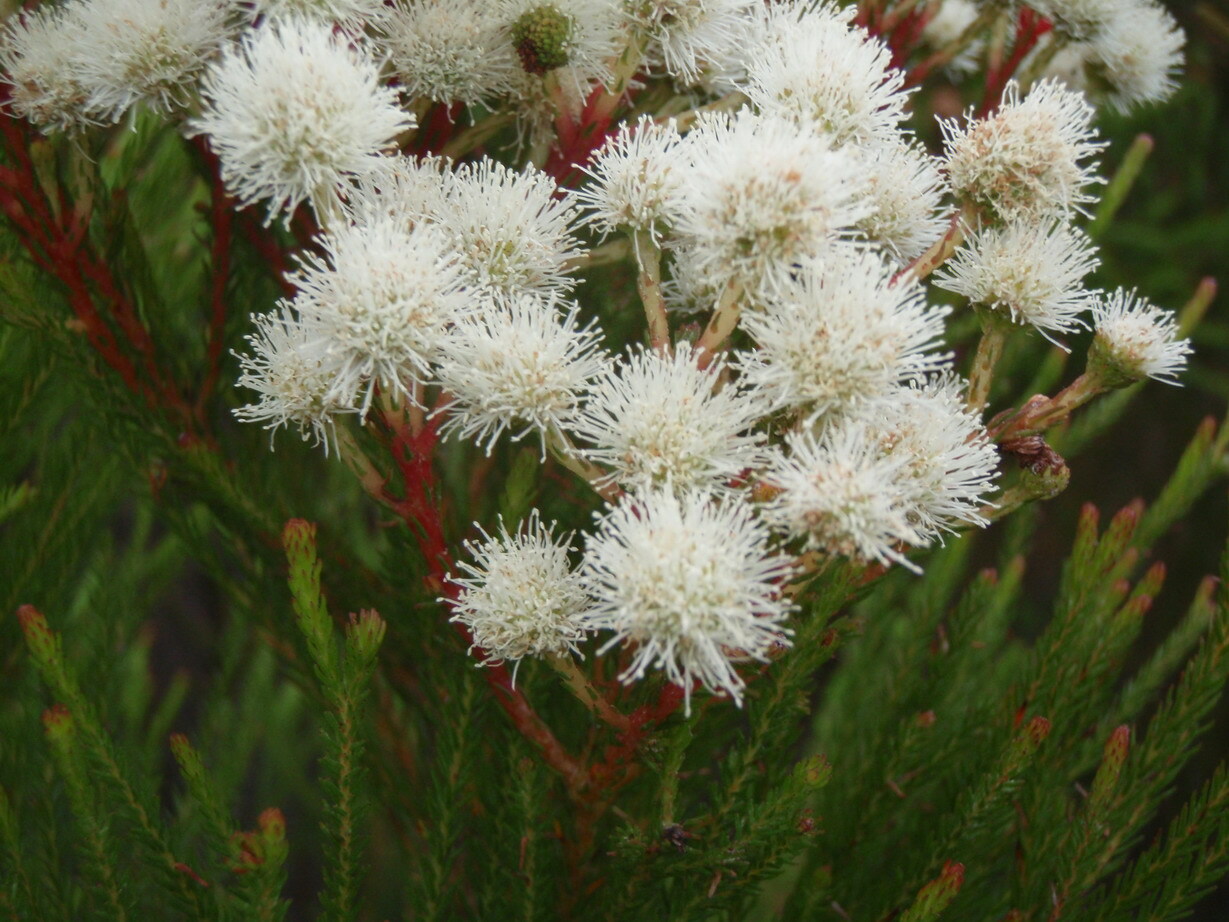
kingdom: Plantae
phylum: Tracheophyta
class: Magnoliopsida
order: Bruniales
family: Bruniaceae
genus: Berzelia
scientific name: Berzelia intermedia
